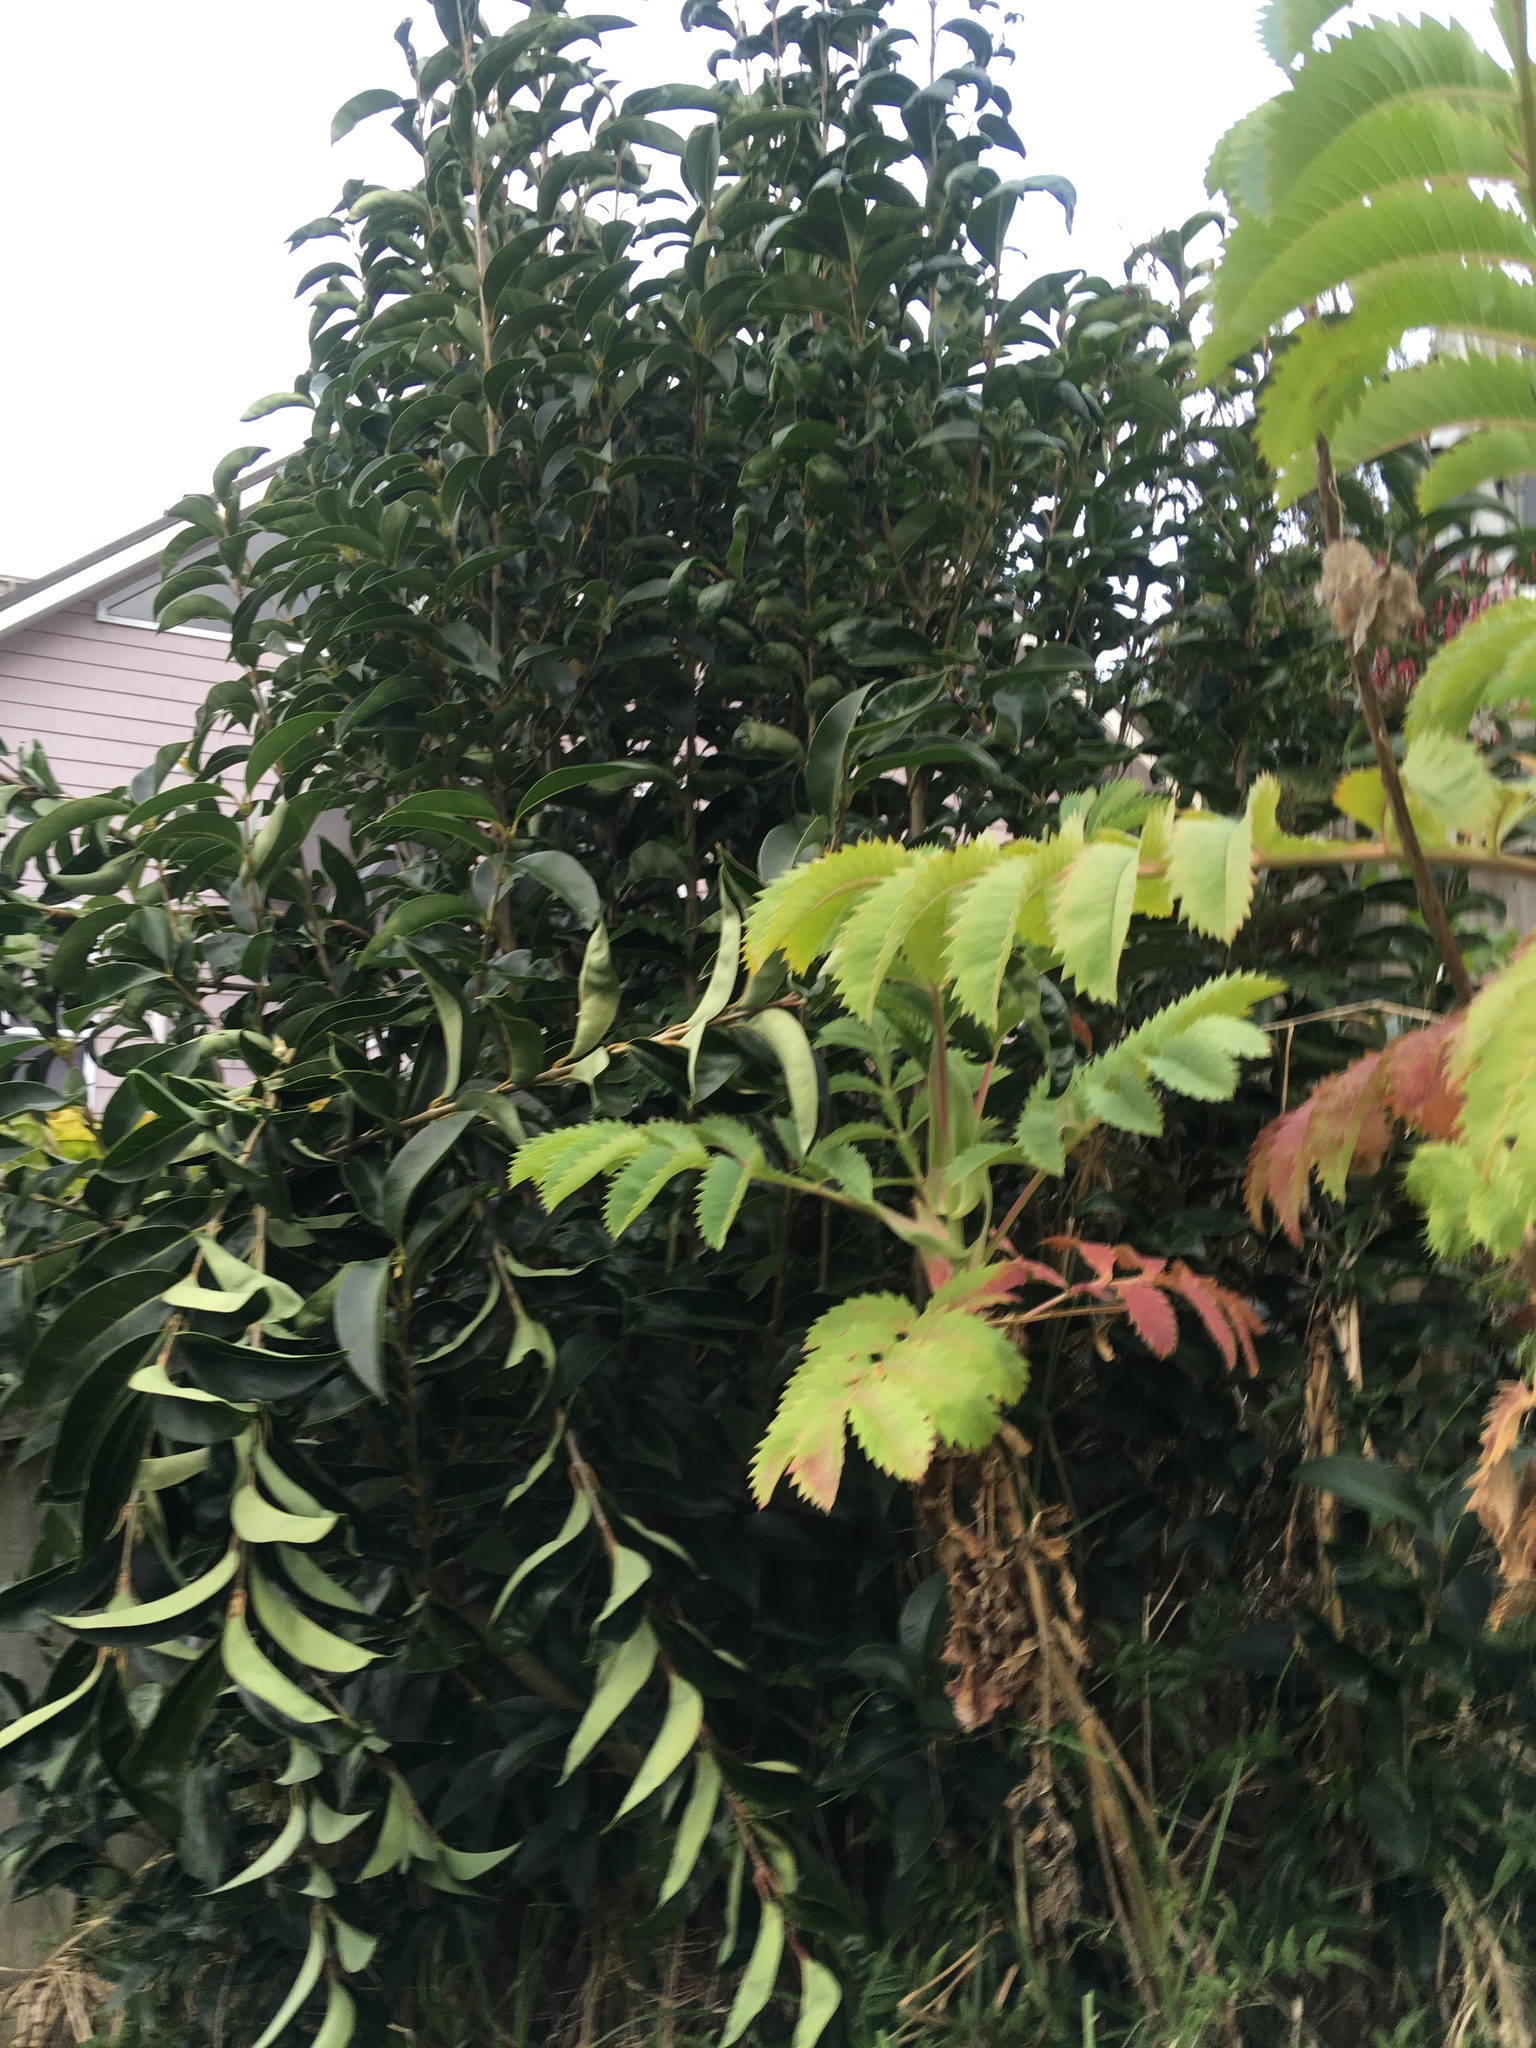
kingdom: Plantae
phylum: Tracheophyta
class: Magnoliopsida
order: Lamiales
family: Oleaceae
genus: Ligustrum
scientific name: Ligustrum lucidum
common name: Glossy privet
